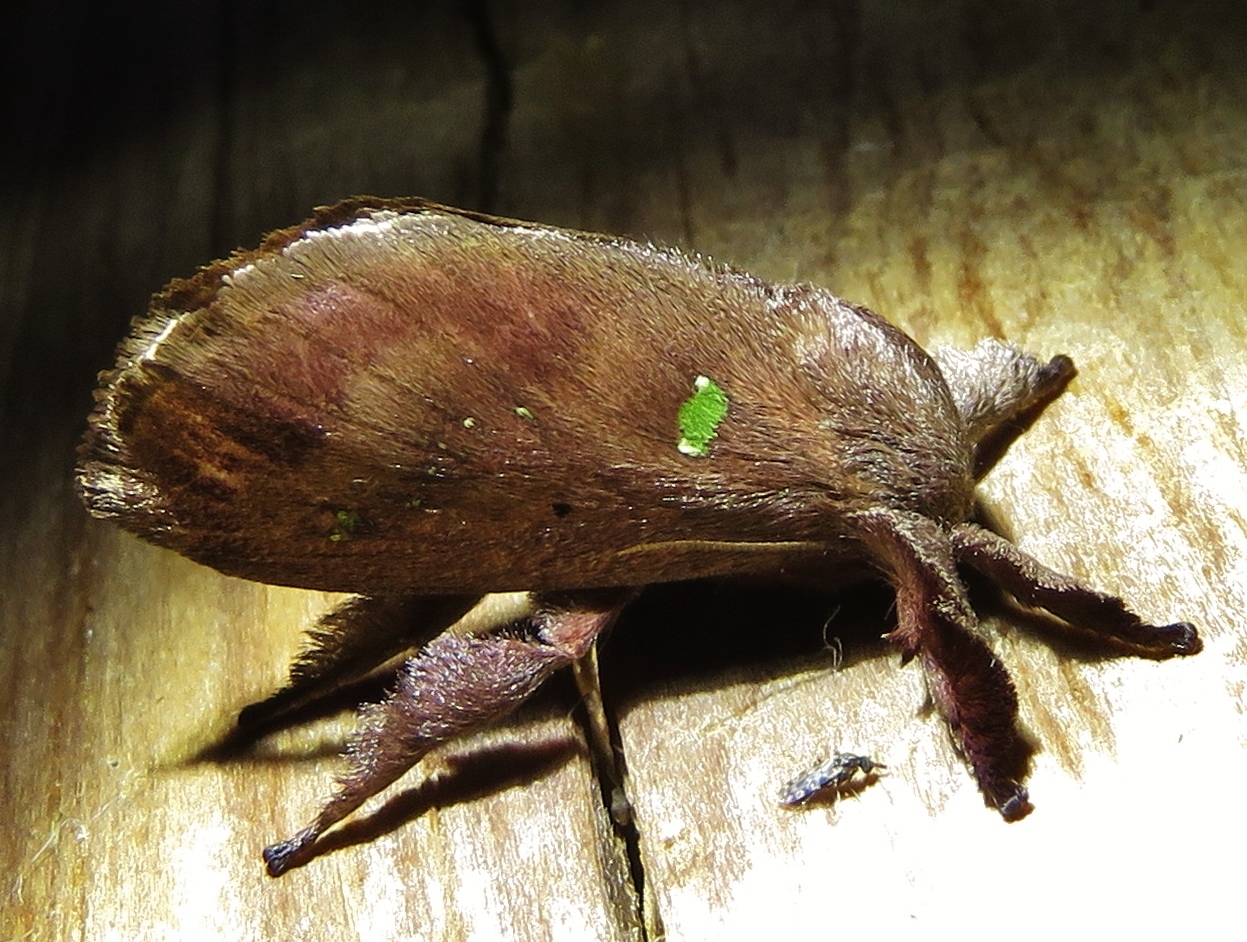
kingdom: Animalia
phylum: Arthropoda
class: Insecta
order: Lepidoptera
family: Limacodidae
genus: Euclea
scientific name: Euclea norba
